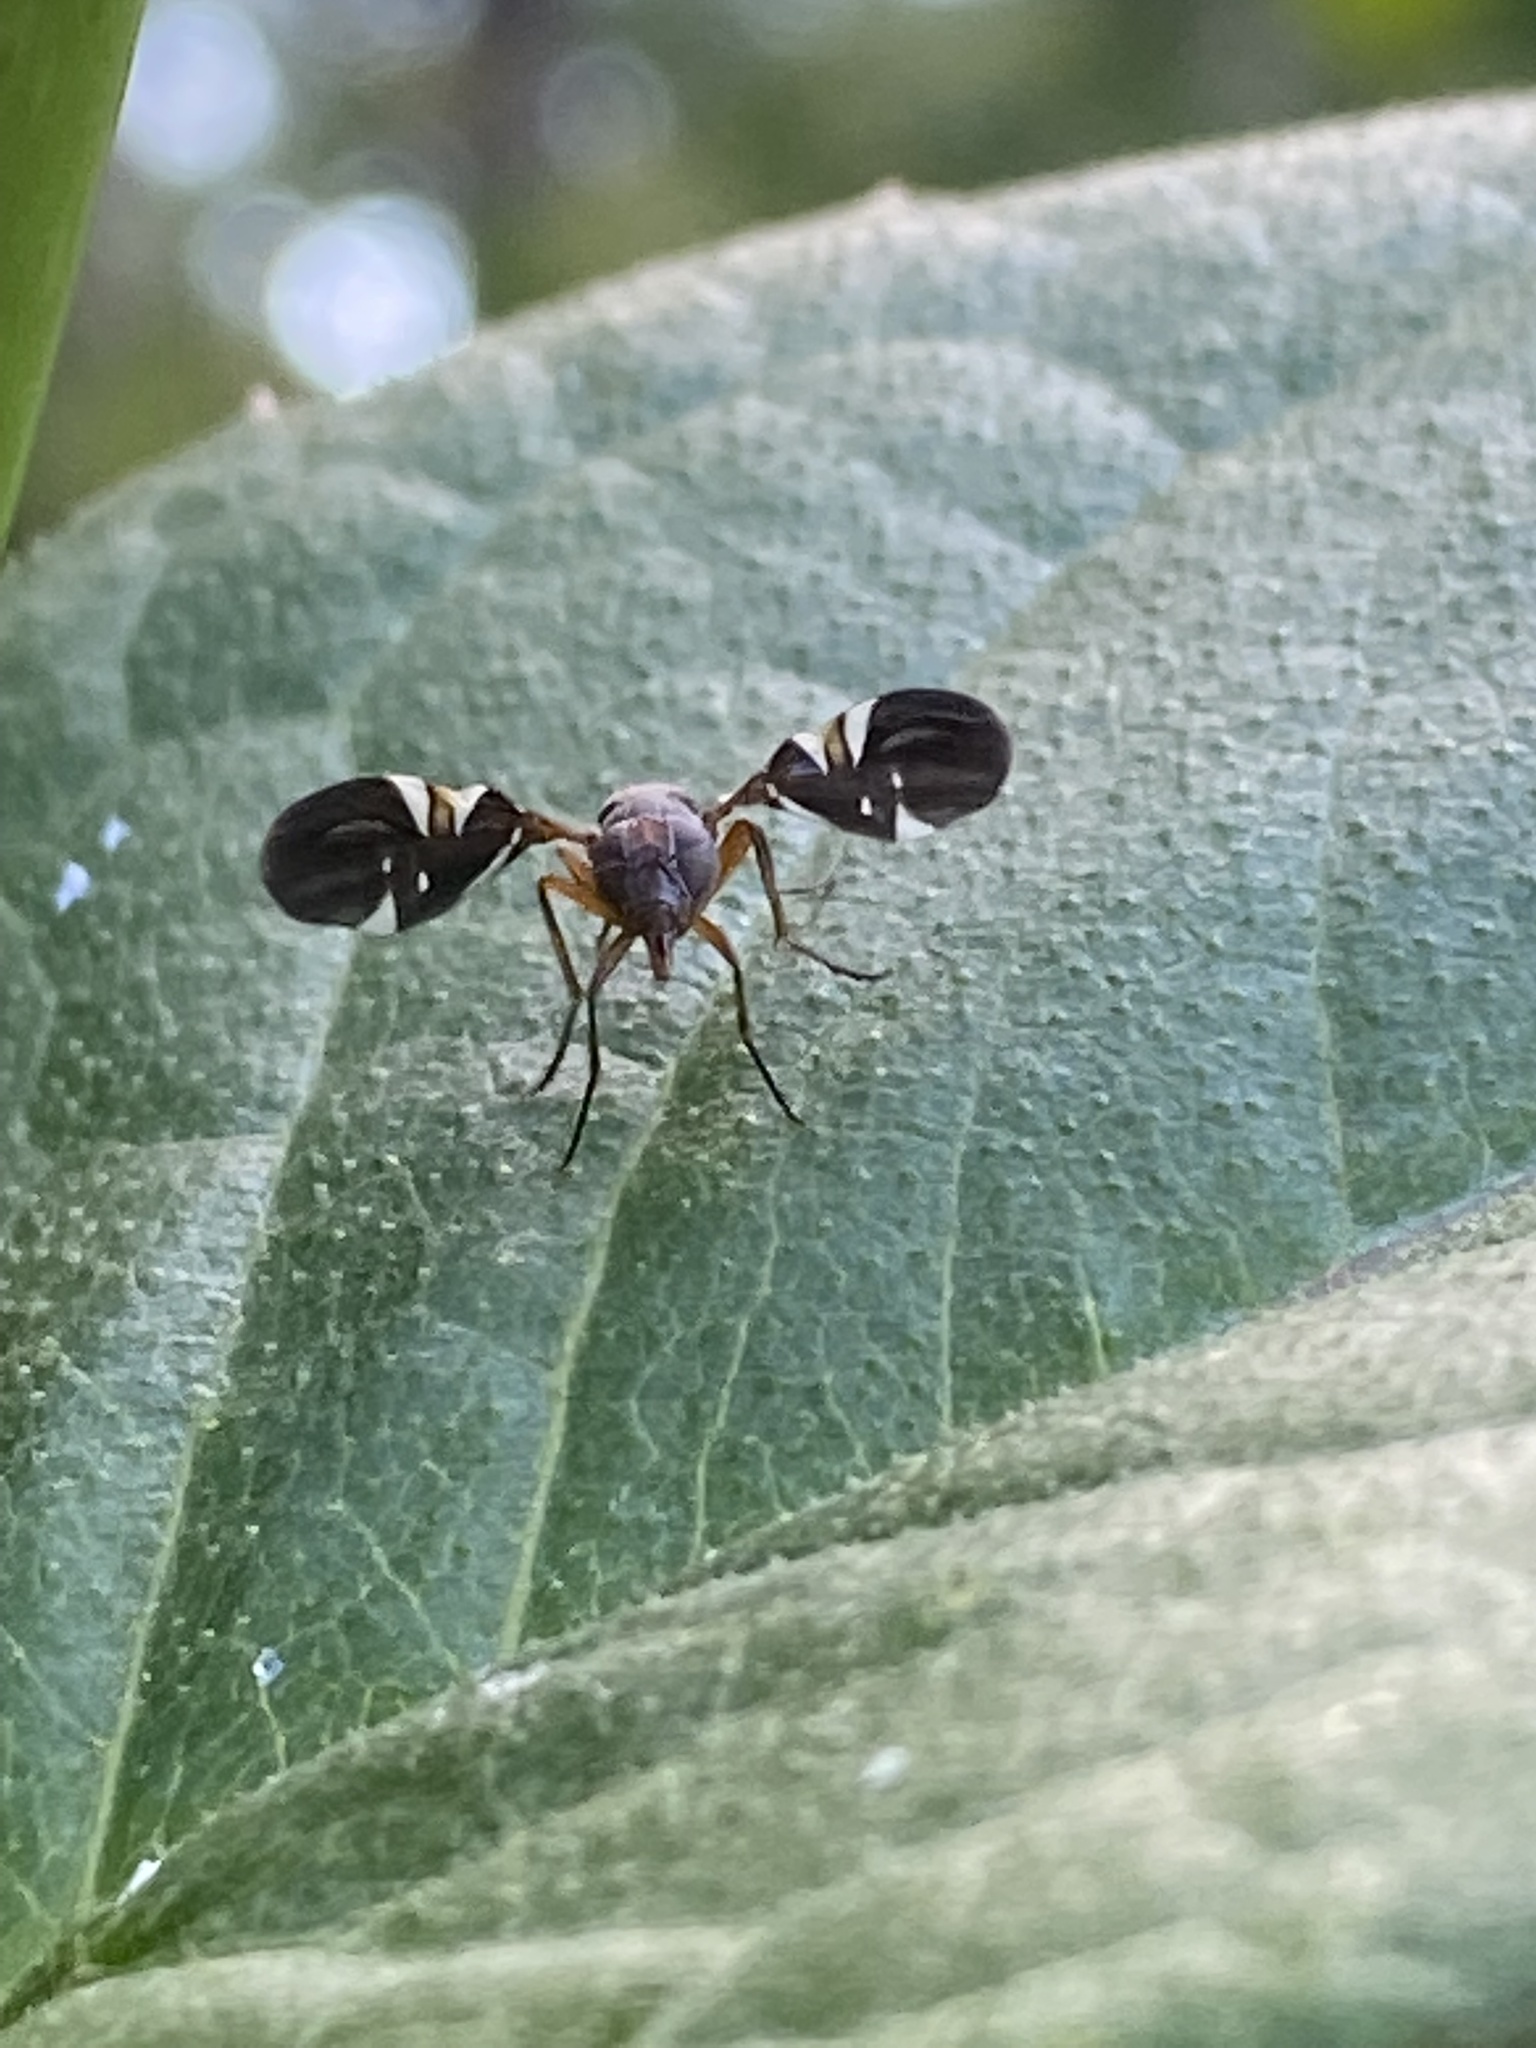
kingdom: Animalia
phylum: Arthropoda
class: Insecta
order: Diptera
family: Ulidiidae
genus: Delphinia
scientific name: Delphinia picta
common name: Common picture-winged fly
